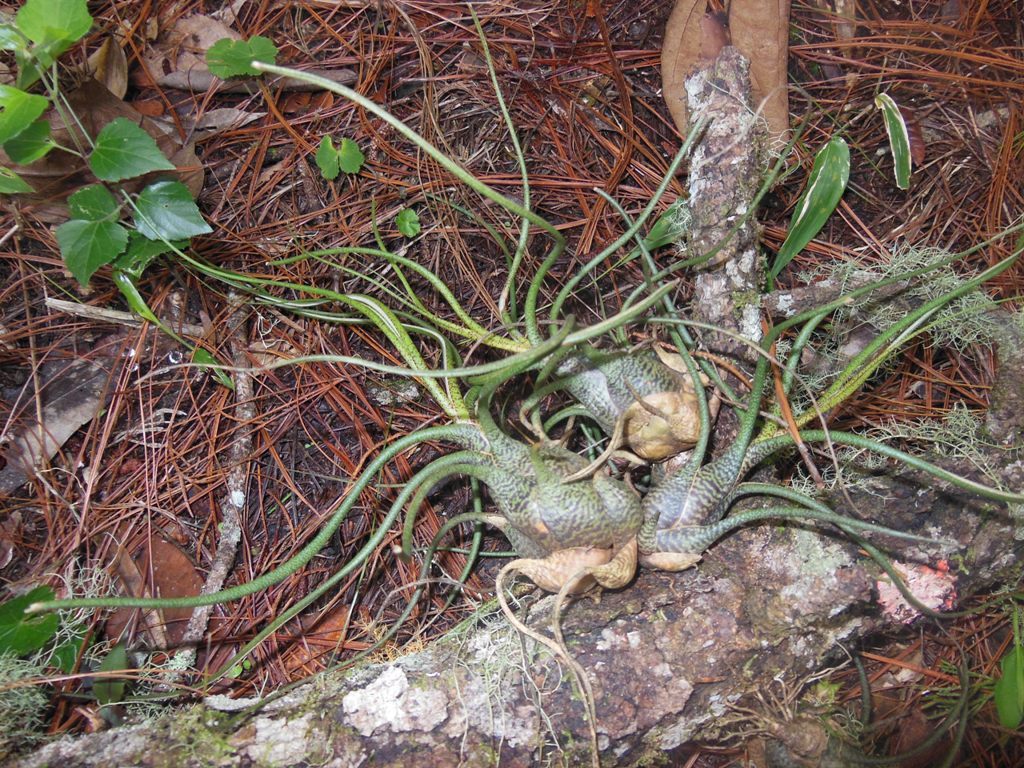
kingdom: Plantae
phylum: Tracheophyta
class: Liliopsida
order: Poales
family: Bromeliaceae
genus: Tillandsia
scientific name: Tillandsia butzii
